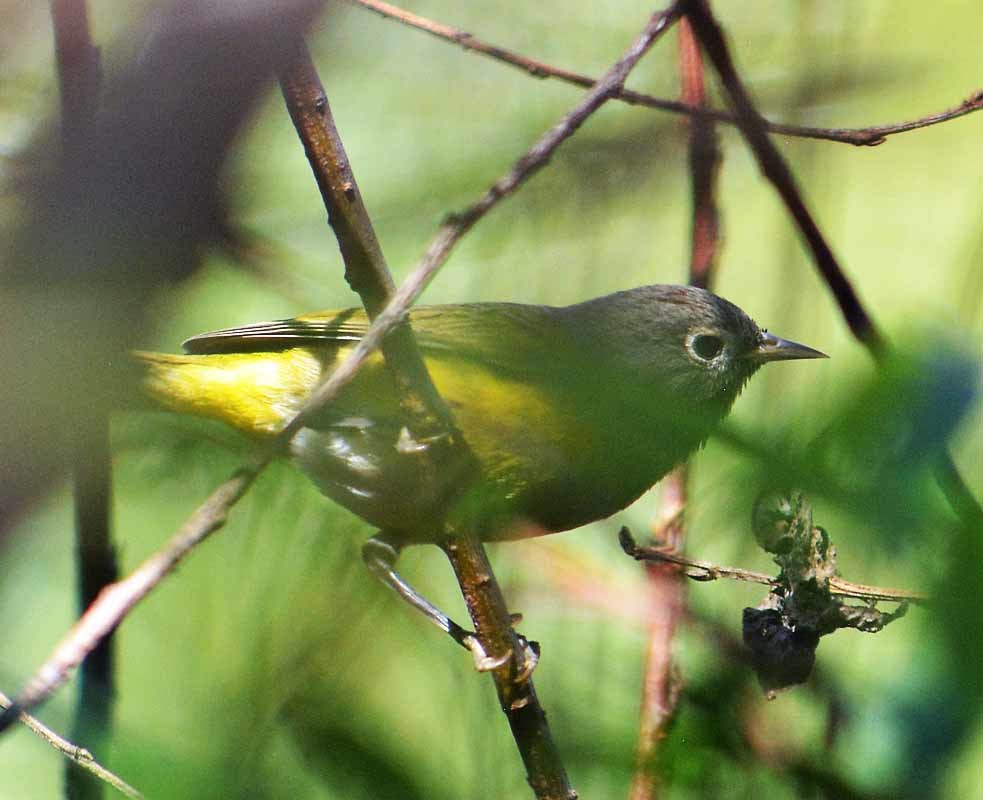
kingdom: Animalia
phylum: Chordata
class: Aves
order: Passeriformes
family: Parulidae
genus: Leiothlypis
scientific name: Leiothlypis ruficapilla
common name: Nashville warbler
